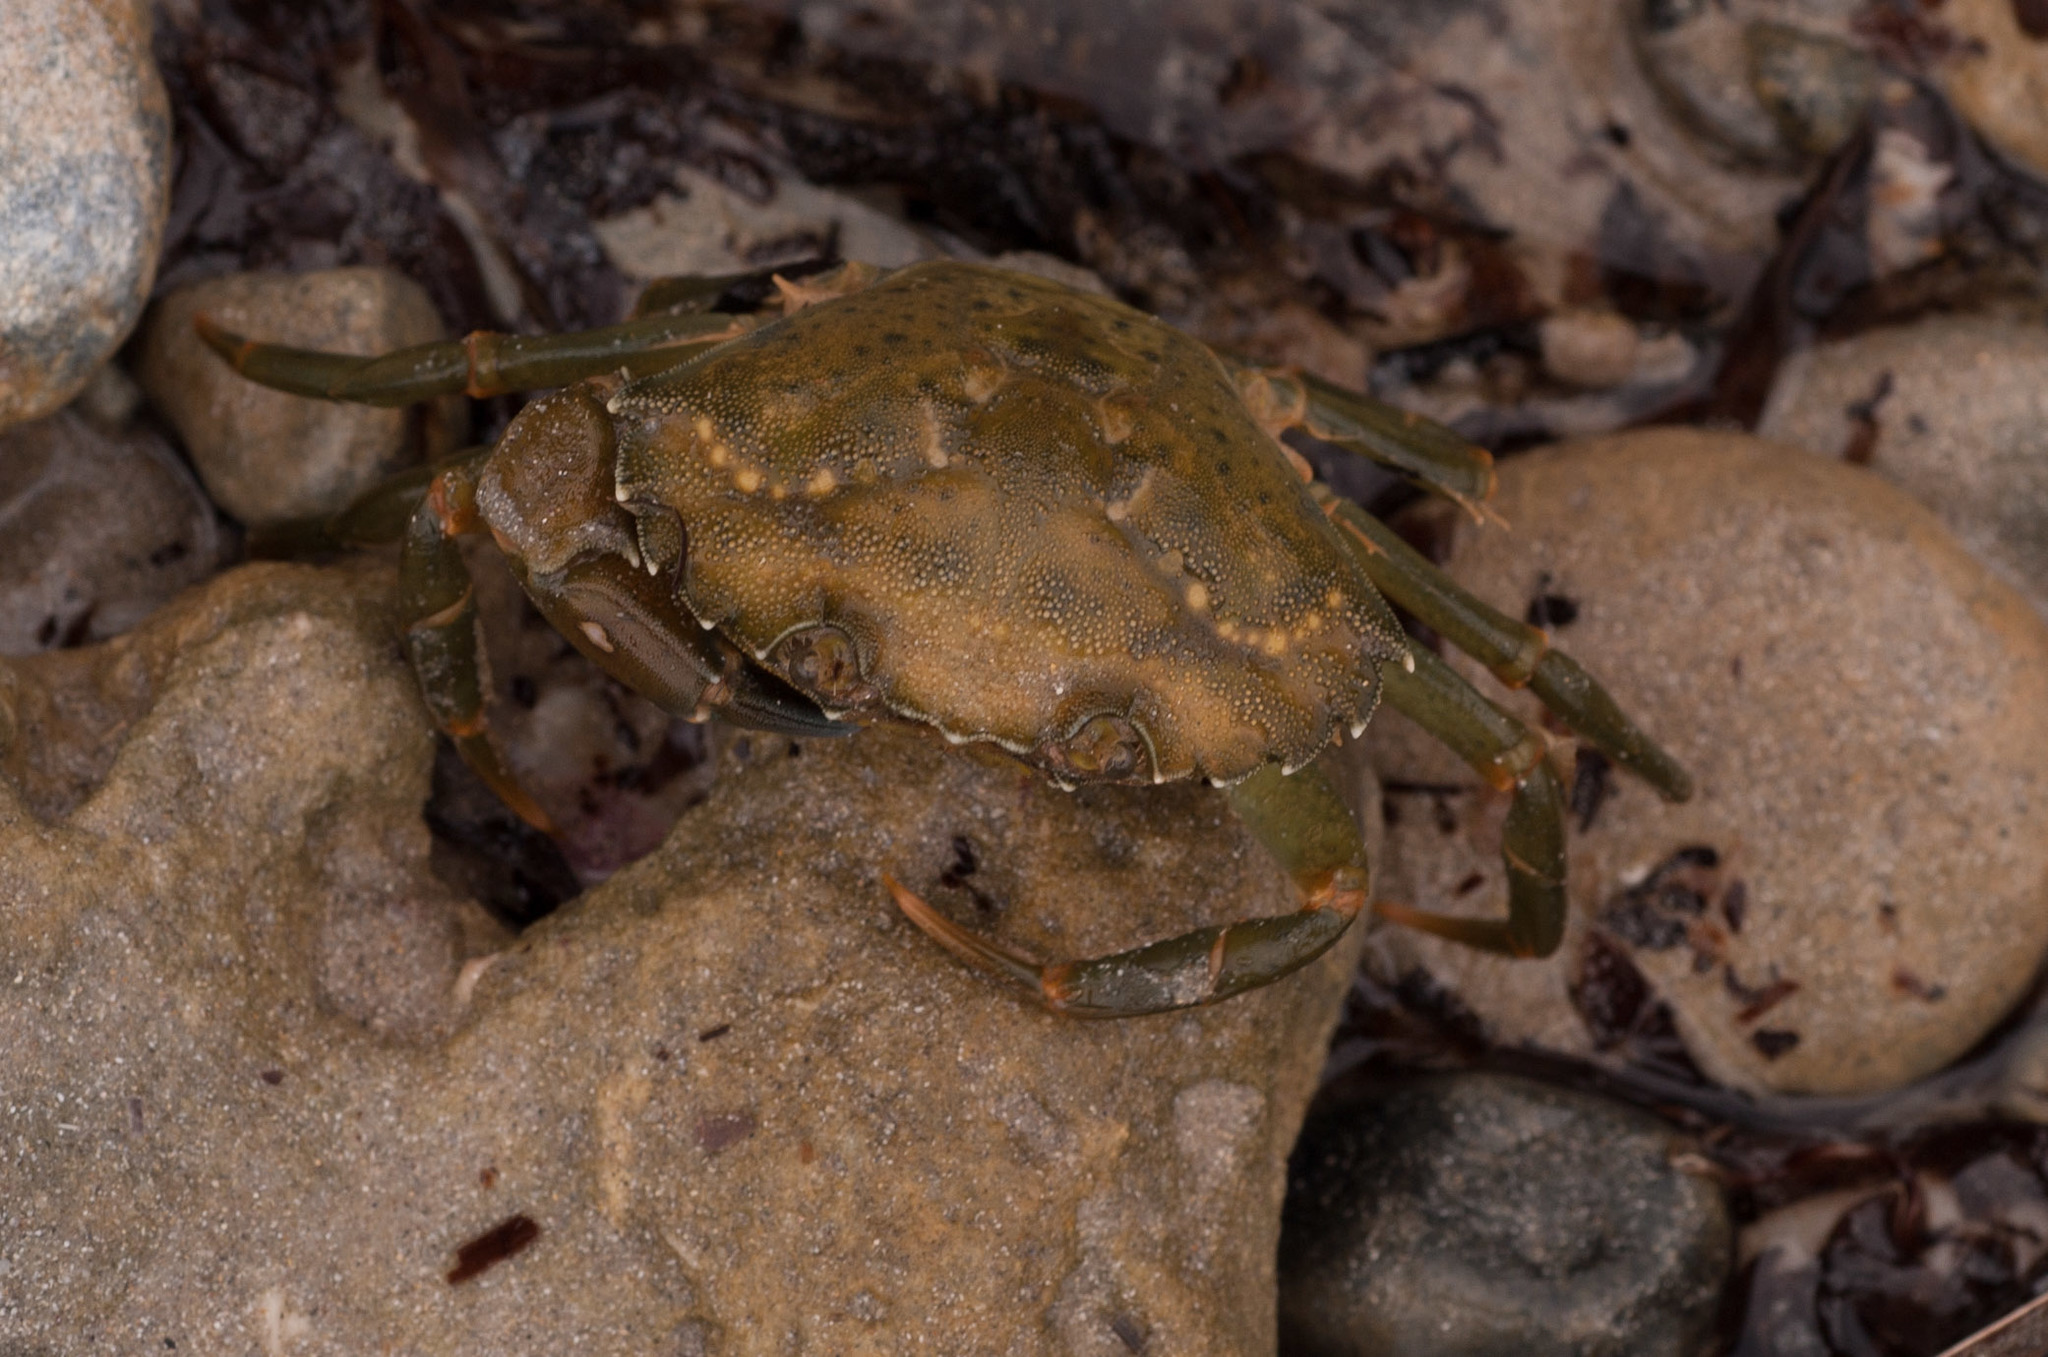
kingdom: Animalia
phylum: Arthropoda
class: Malacostraca
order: Decapoda
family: Carcinidae
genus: Carcinus
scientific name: Carcinus maenas
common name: European green crab
